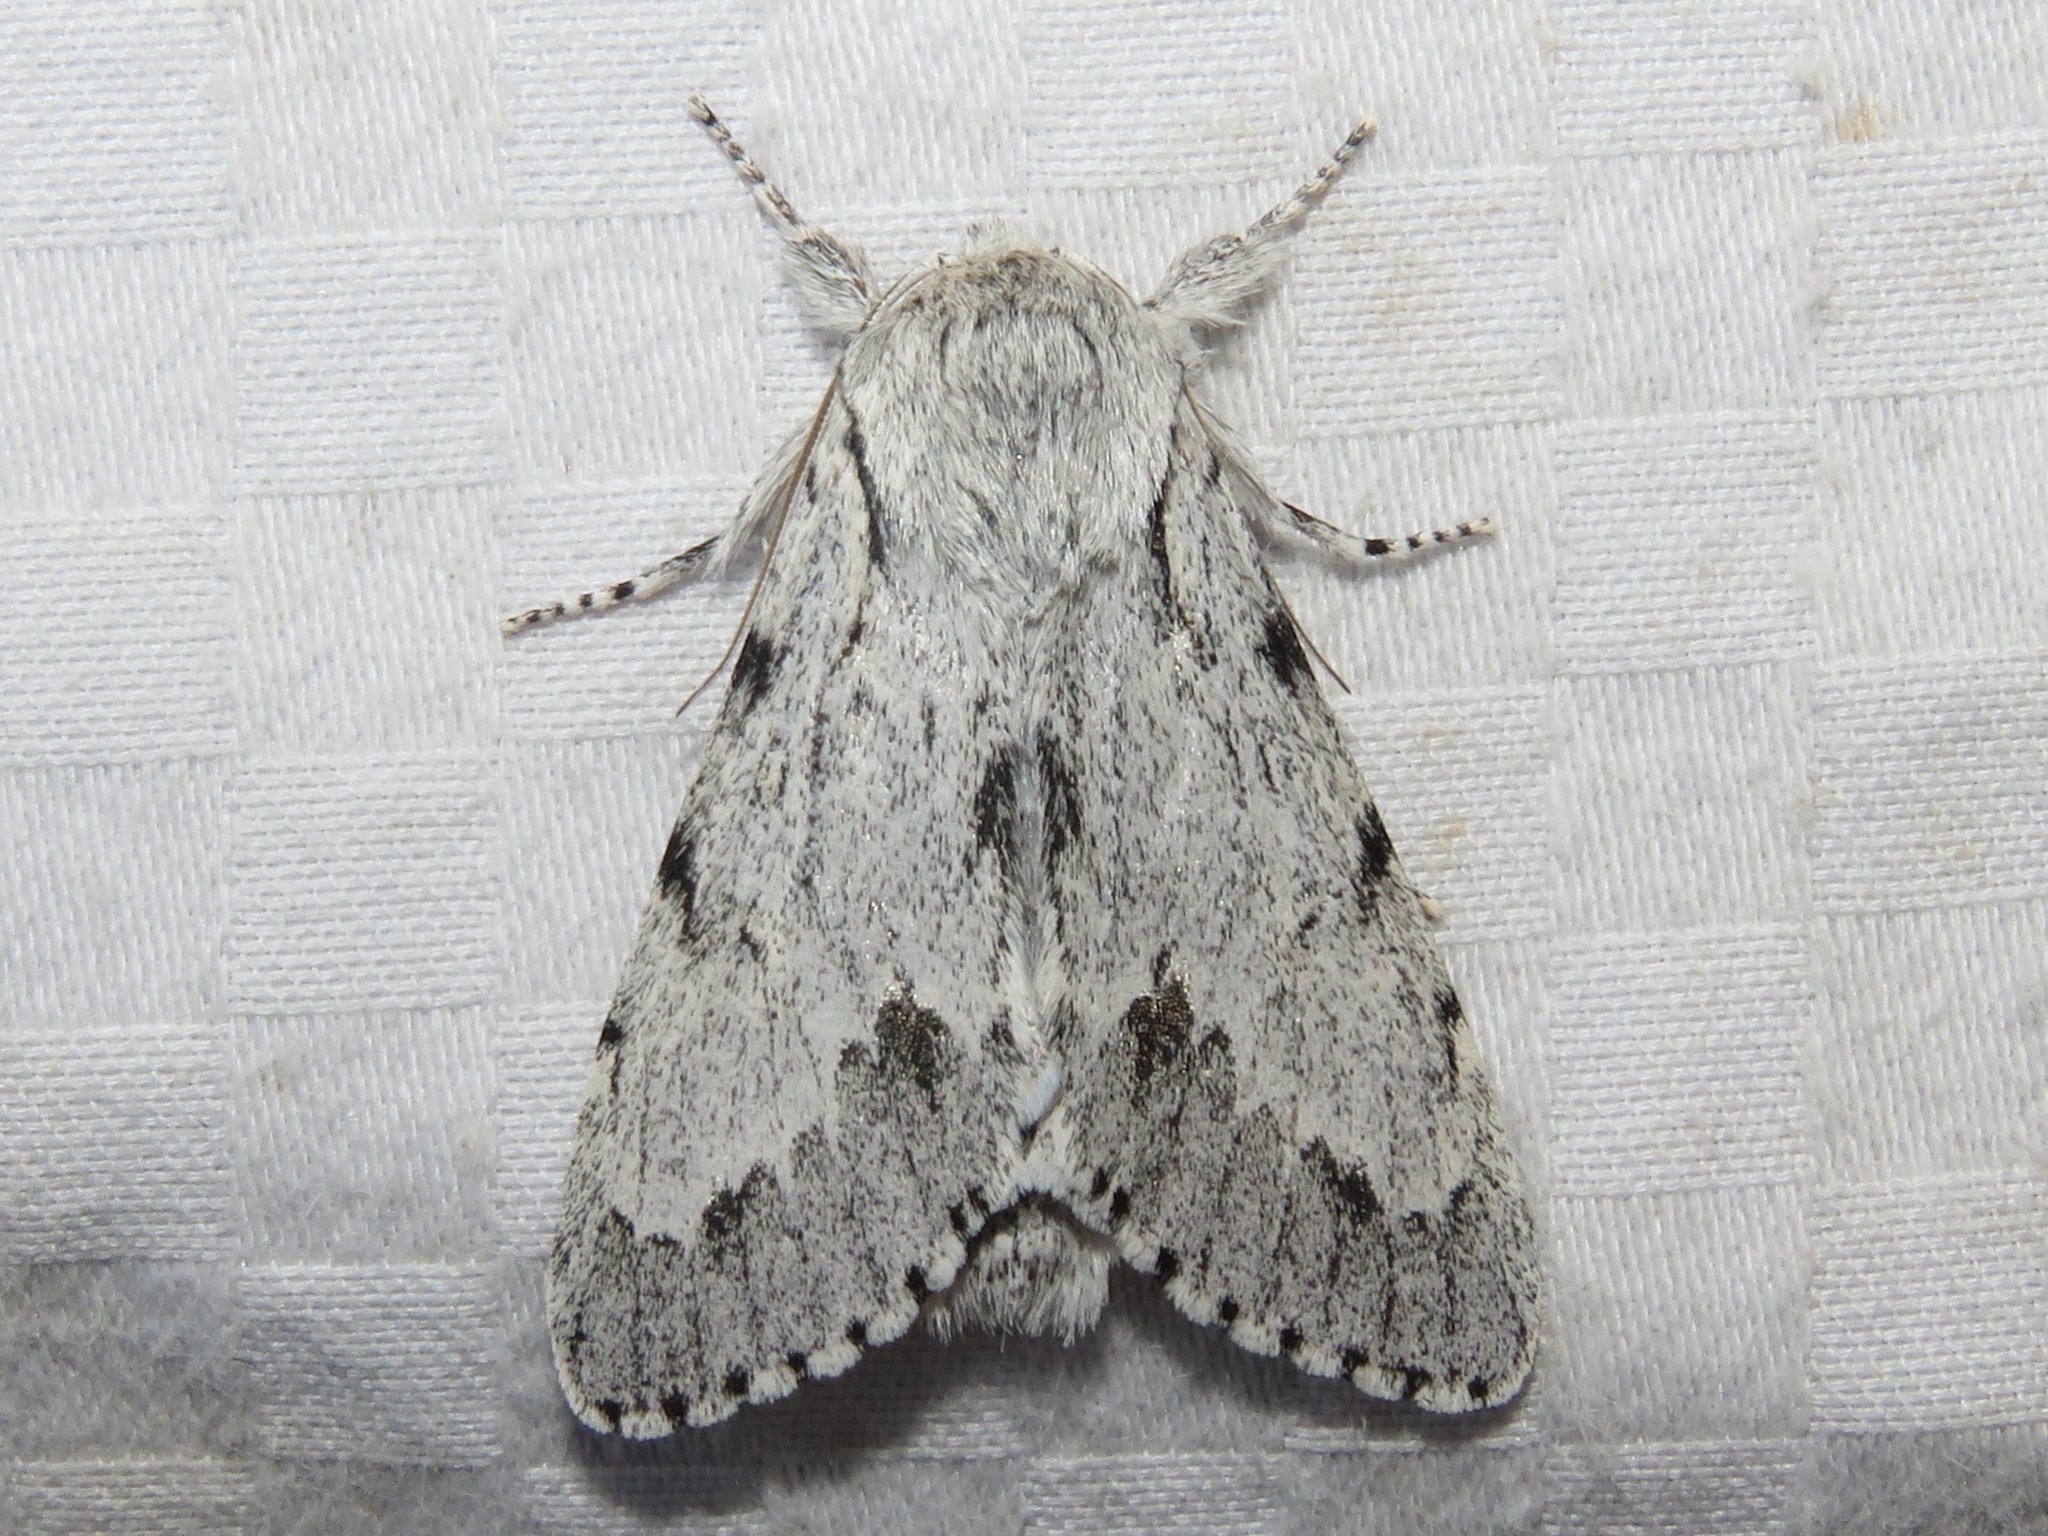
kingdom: Animalia
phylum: Arthropoda
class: Insecta
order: Lepidoptera
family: Noctuidae
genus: Acronicta
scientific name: Acronicta lepusculina
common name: Cottonwood dagger
